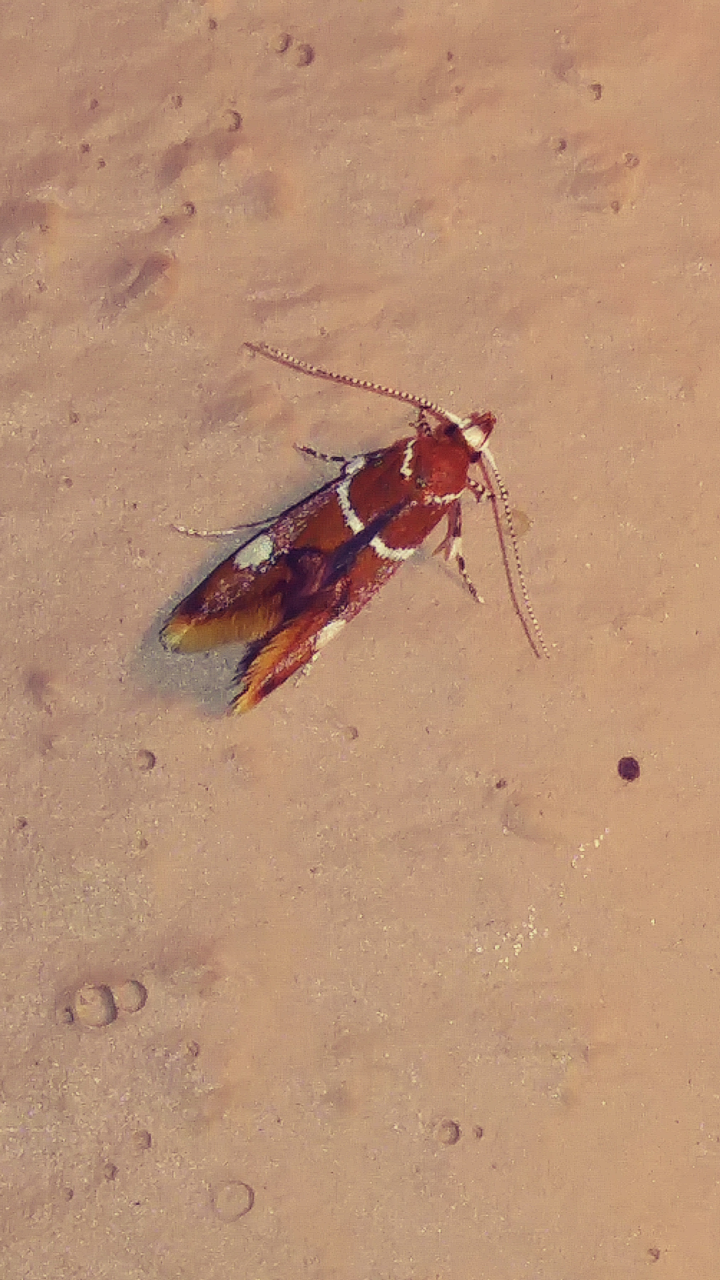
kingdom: Animalia
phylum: Arthropoda
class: Insecta
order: Lepidoptera
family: Oecophoridae
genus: Promalactis
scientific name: Promalactis suzukiella
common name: Moth
